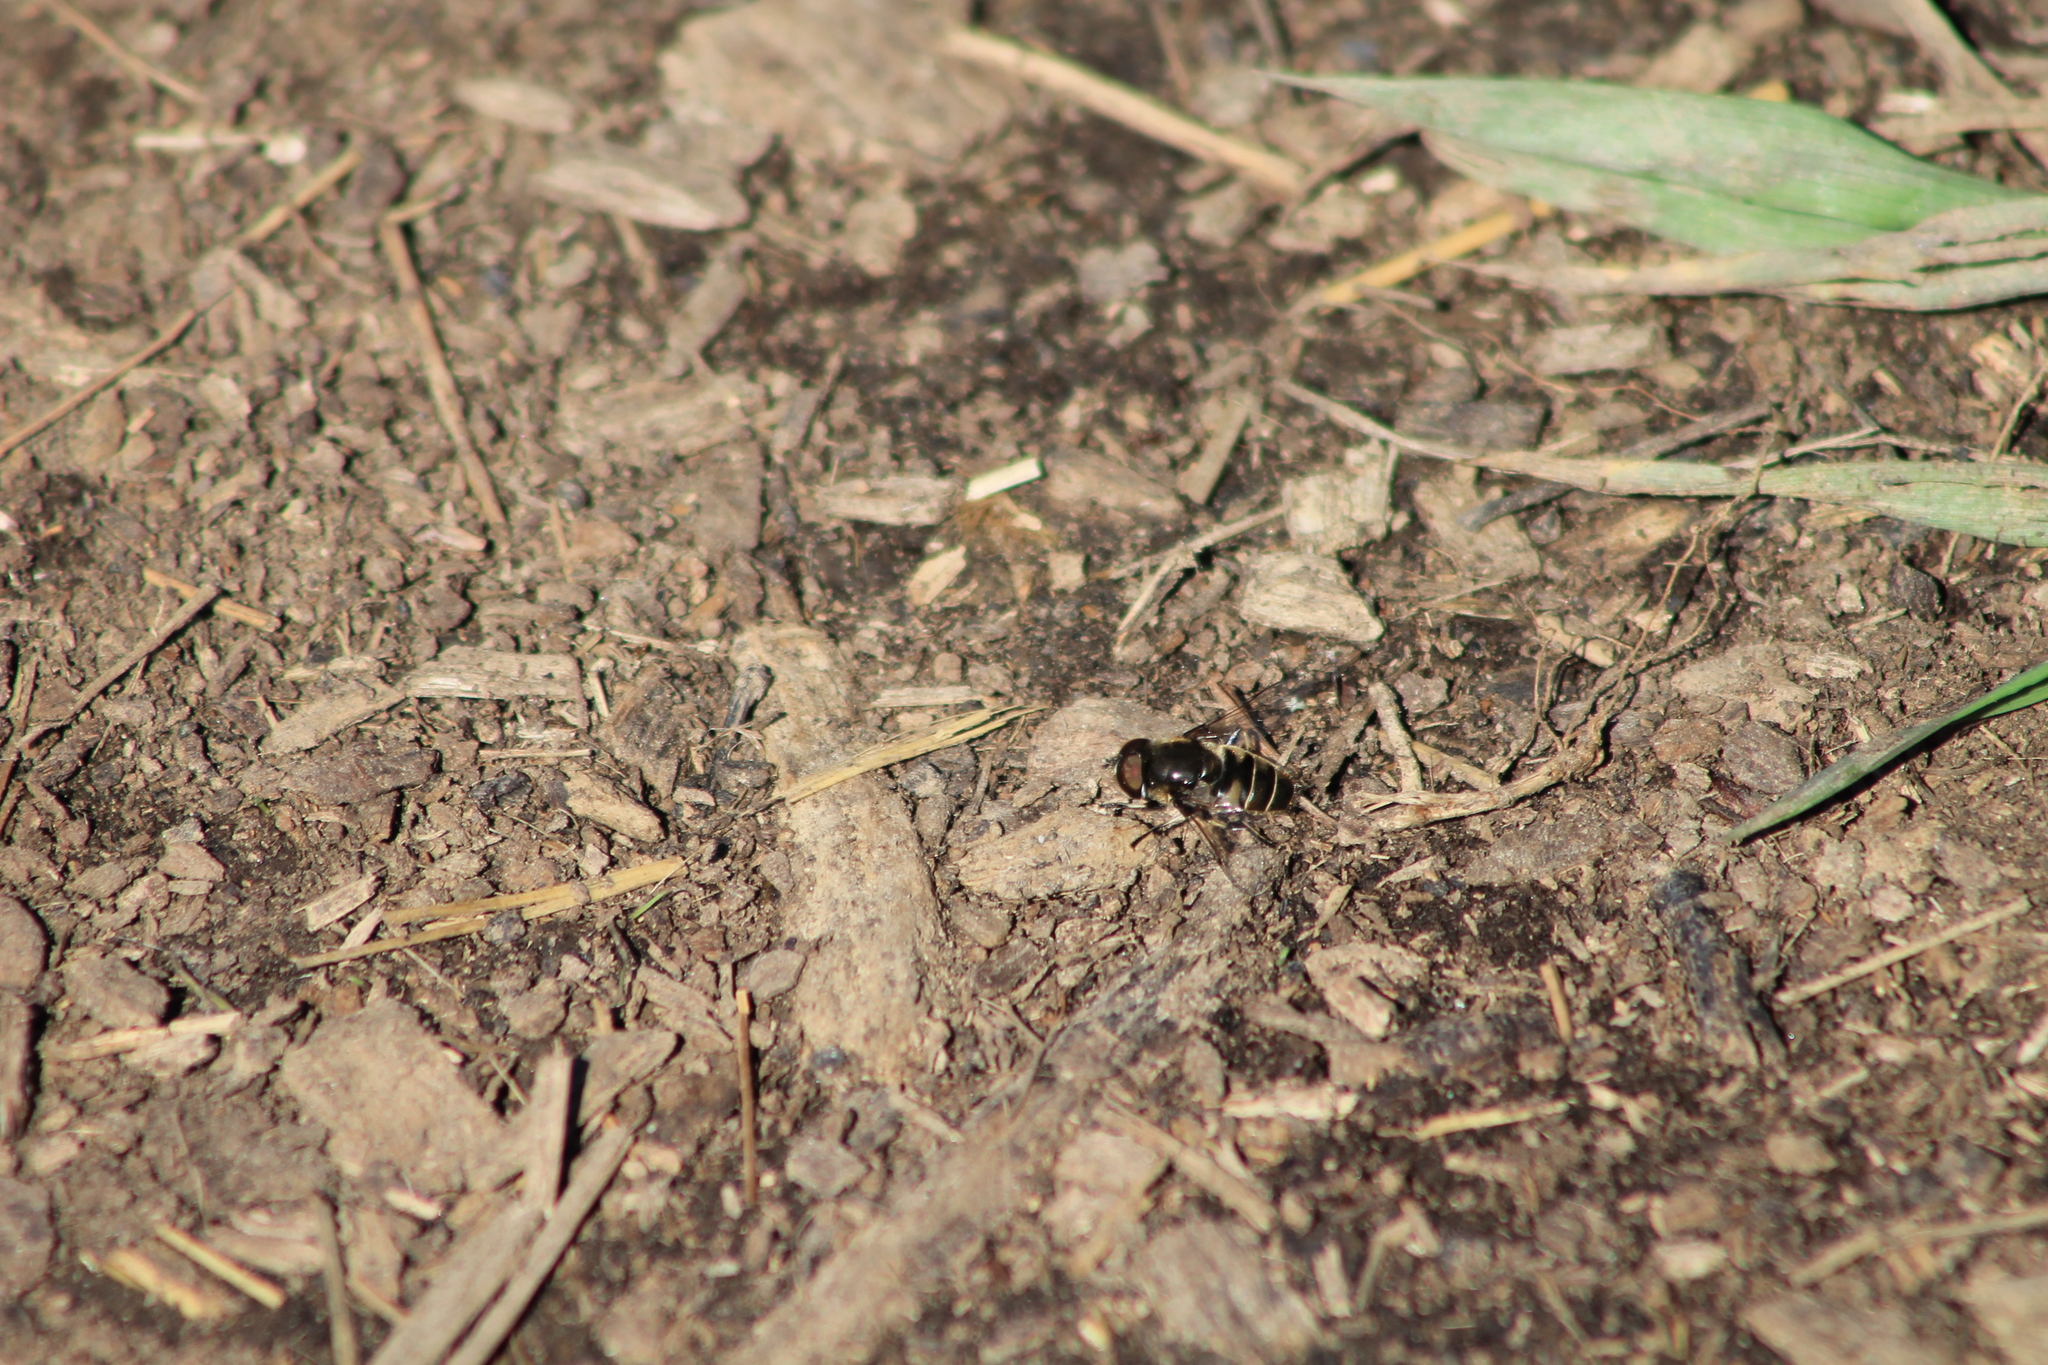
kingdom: Animalia
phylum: Arthropoda
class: Insecta
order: Diptera
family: Syrphidae
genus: Eristalis
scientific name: Eristalis dimidiata
